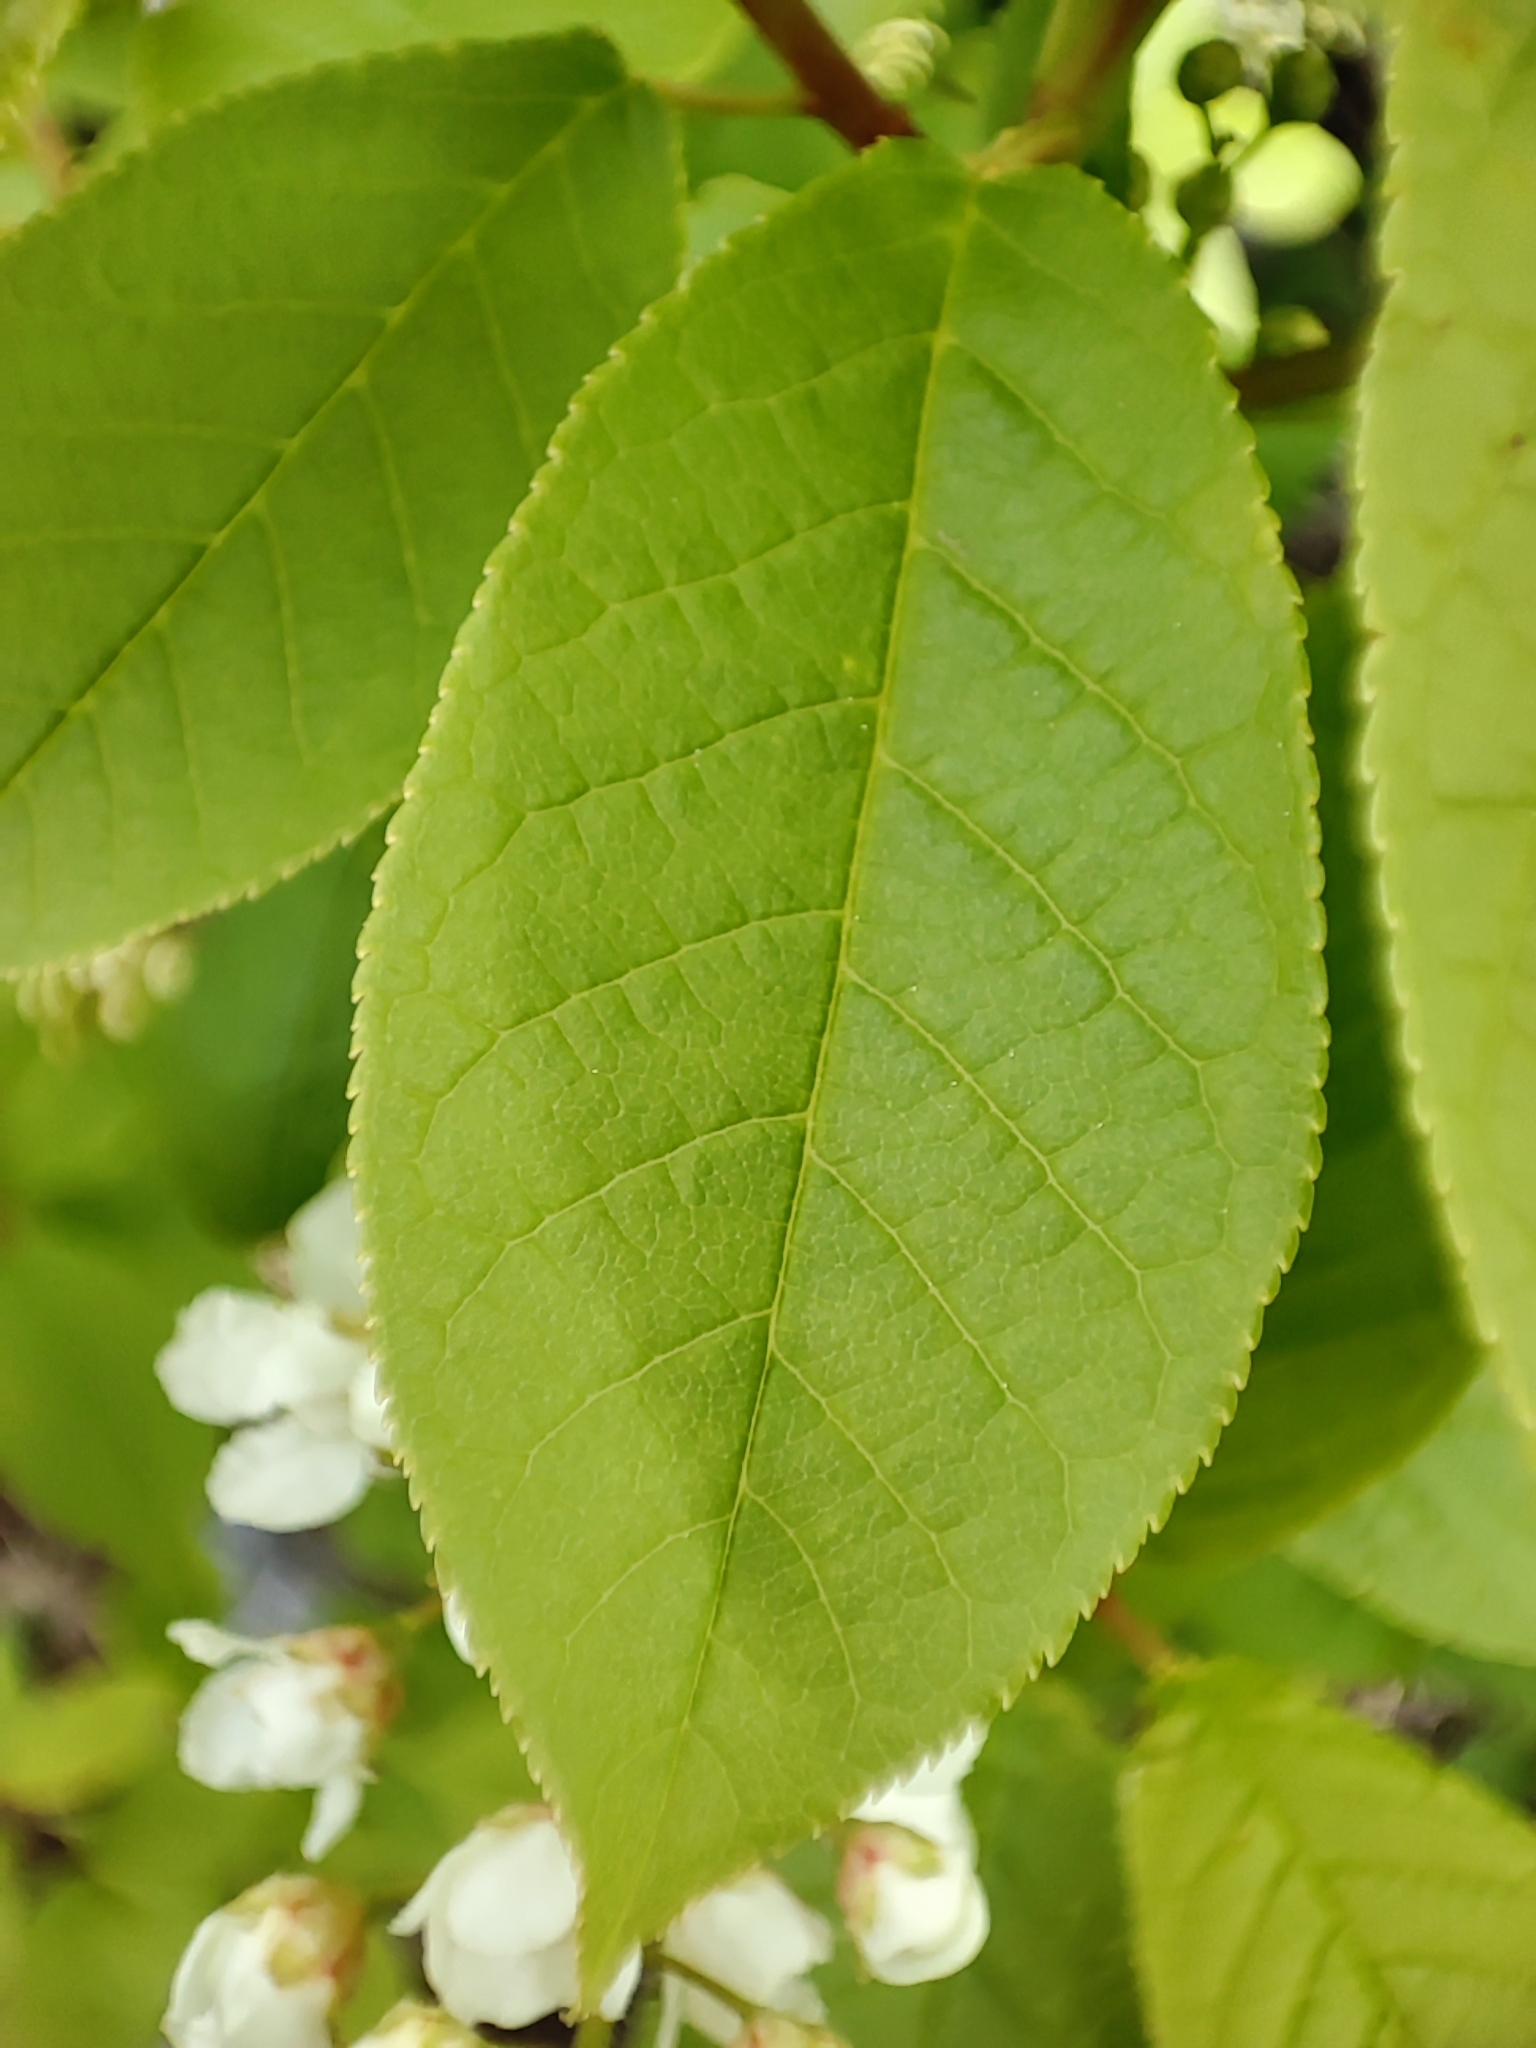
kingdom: Plantae
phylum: Tracheophyta
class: Magnoliopsida
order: Rosales
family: Rosaceae
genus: Prunus
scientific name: Prunus padus
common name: Bird cherry
